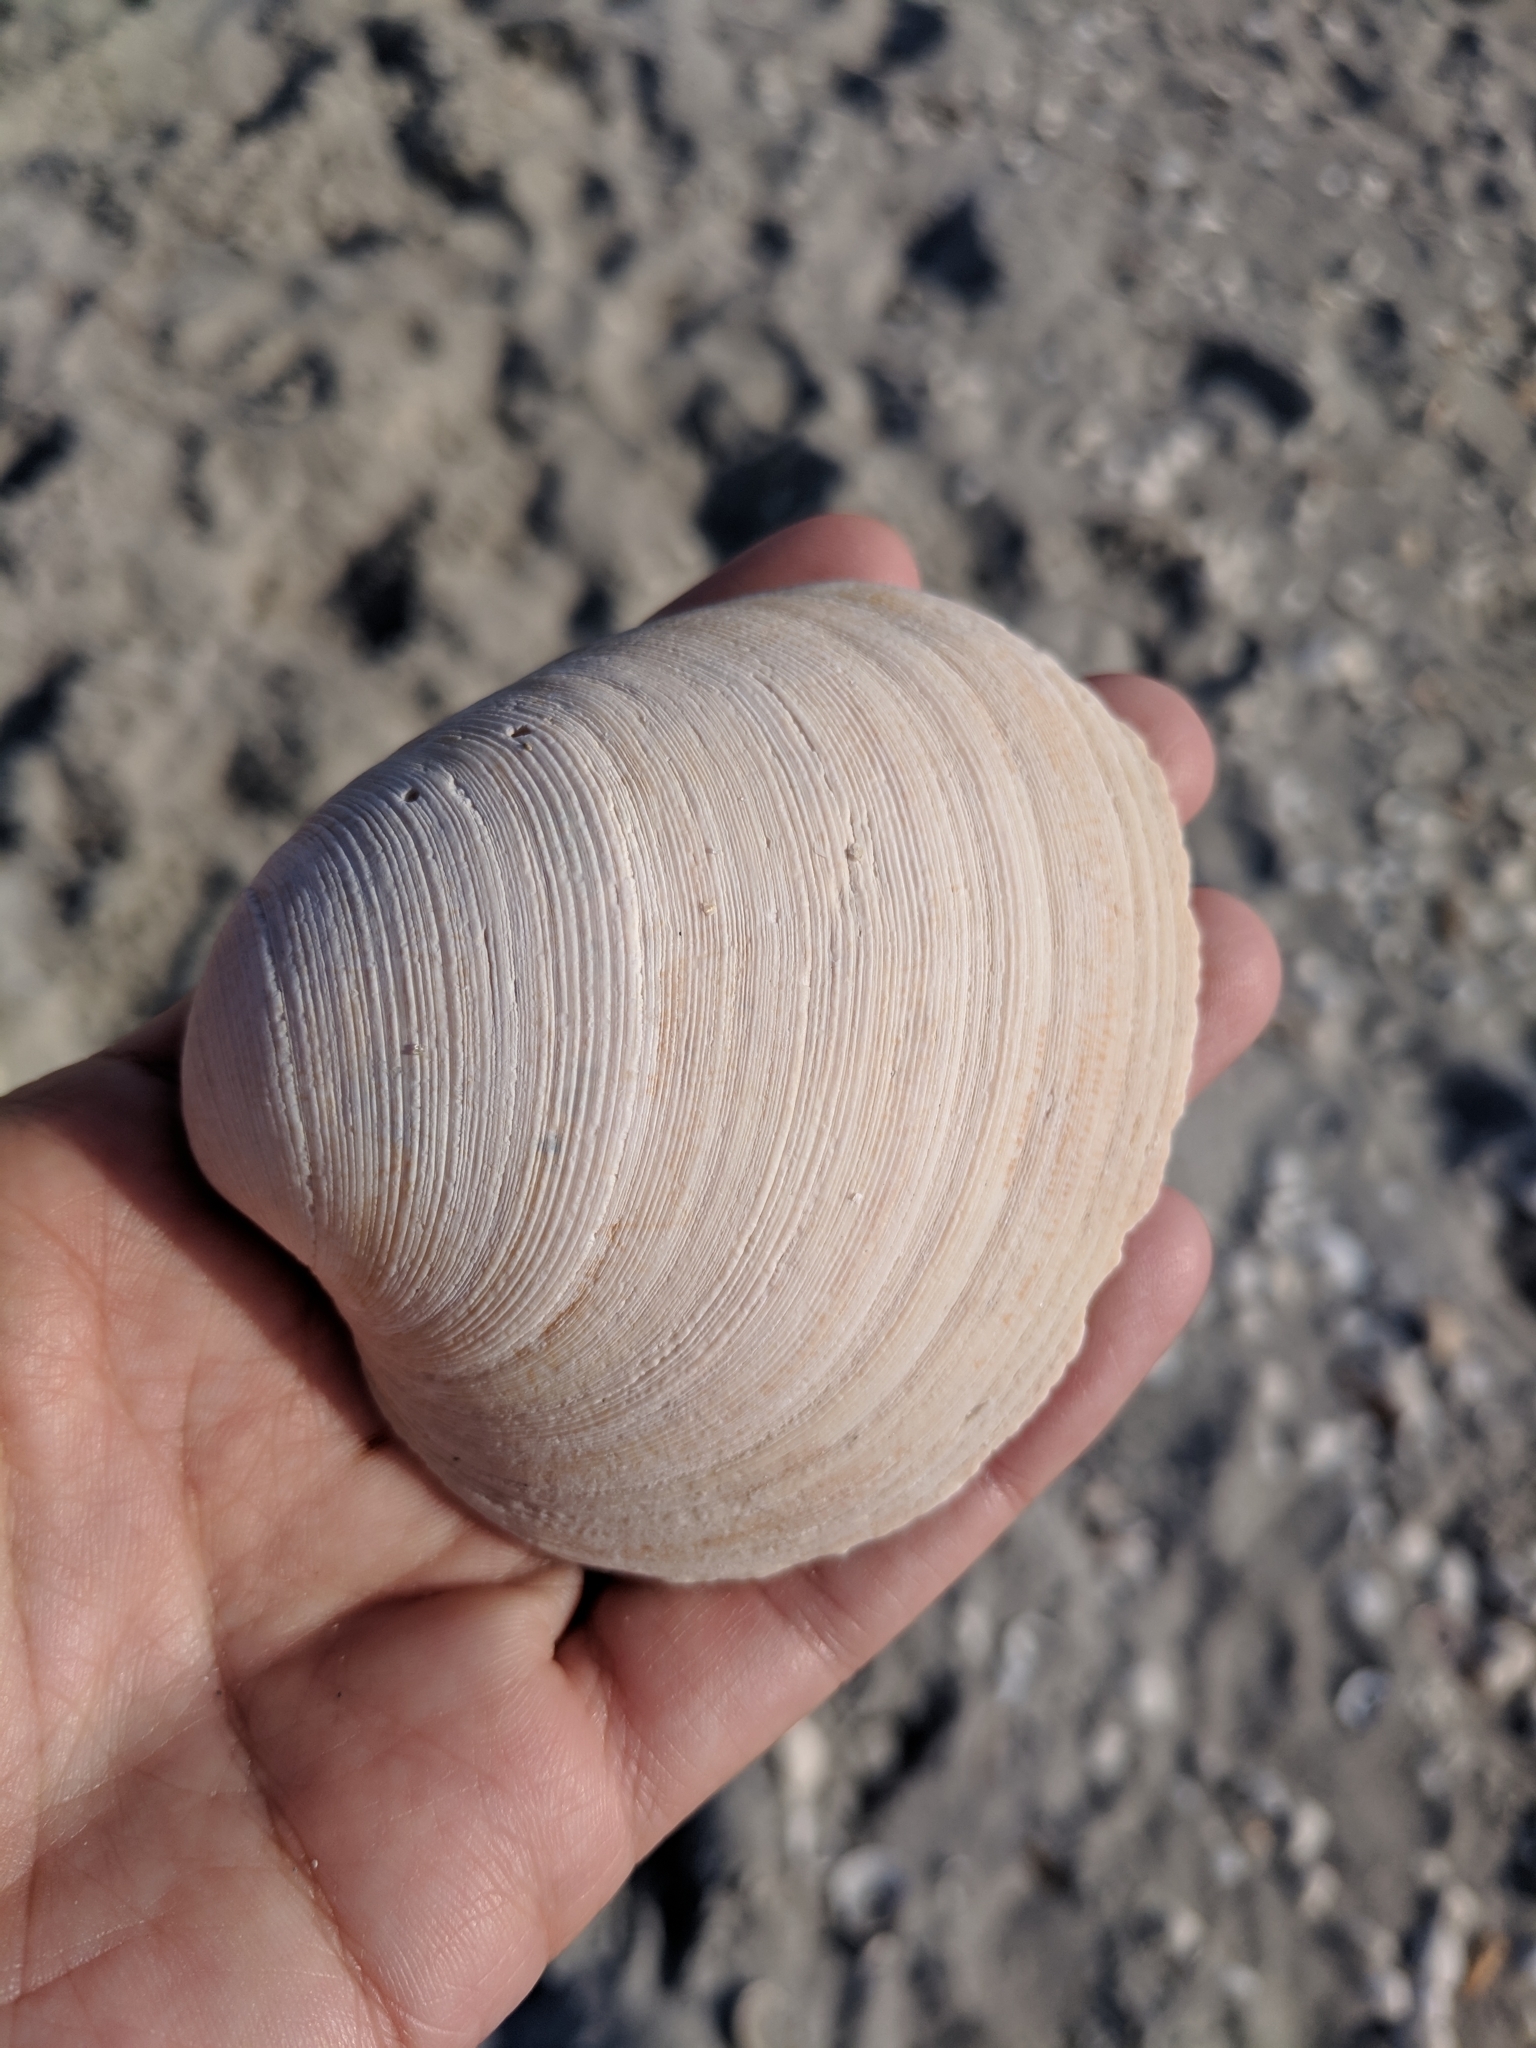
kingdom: Animalia
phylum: Mollusca
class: Bivalvia
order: Venerida
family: Veneridae
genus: Mercenaria
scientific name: Mercenaria campechiensis
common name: Südliche quahog-muschel
